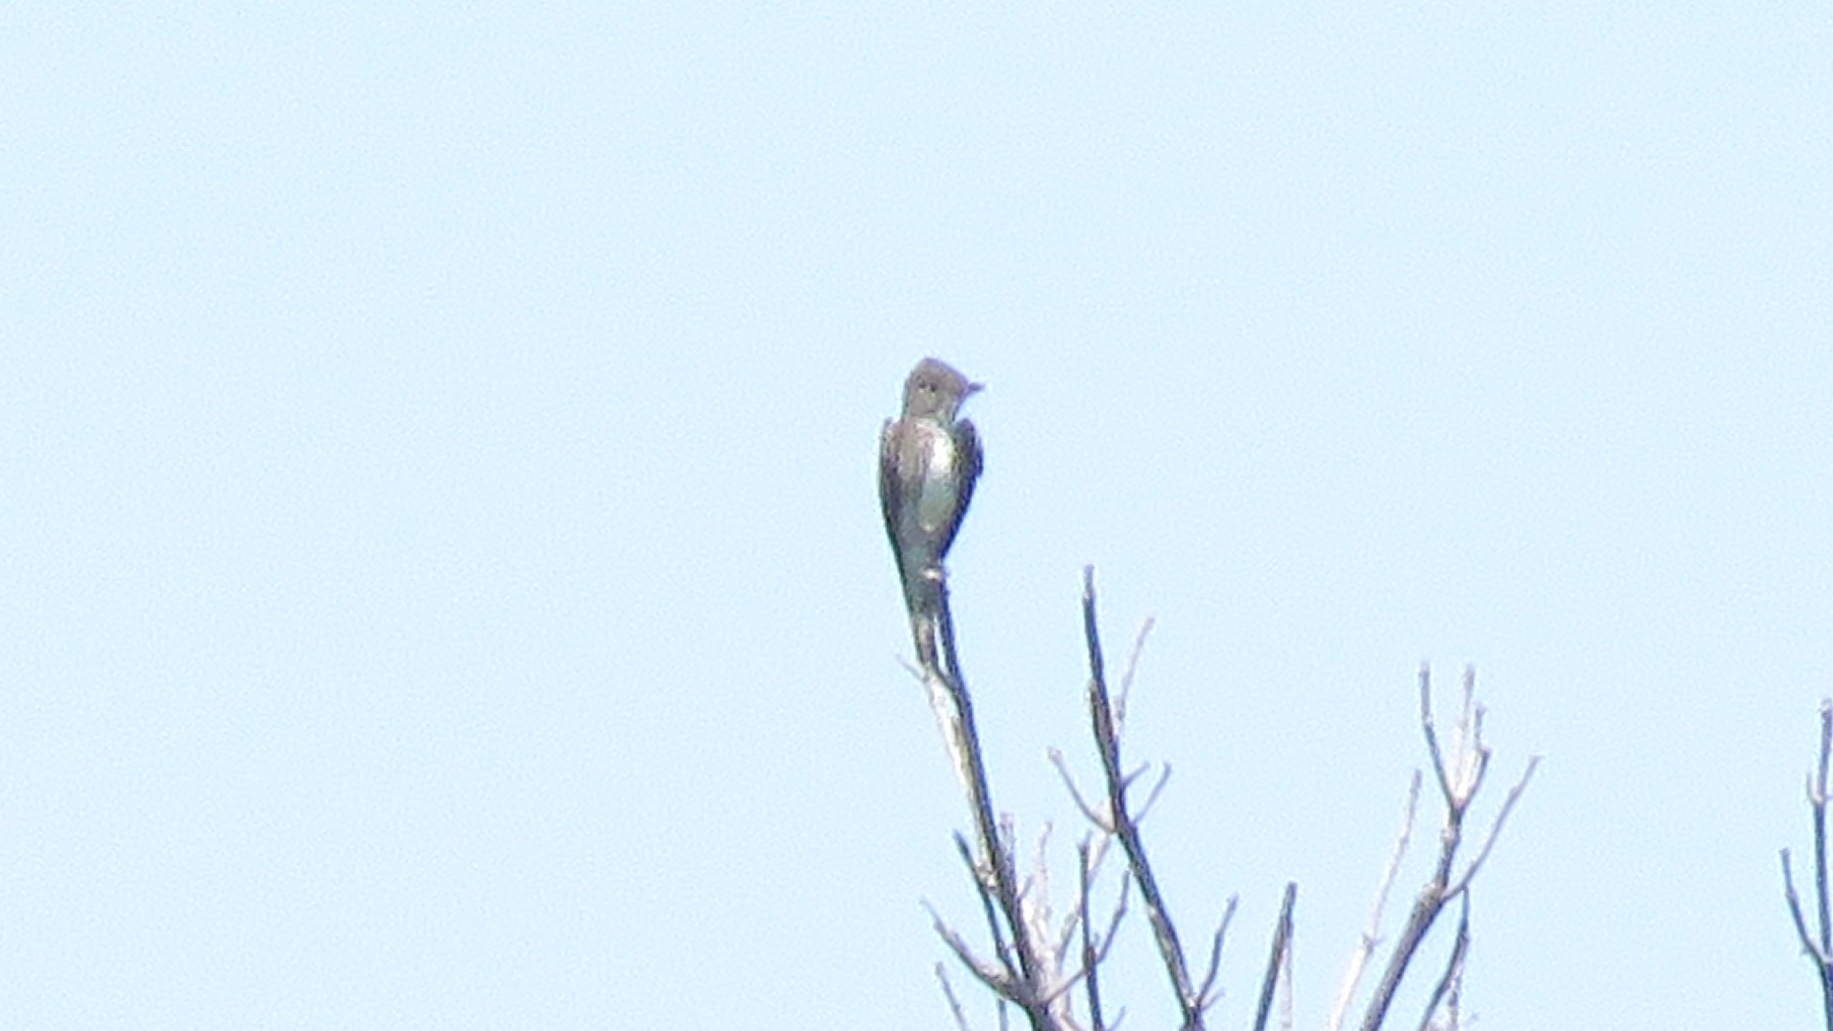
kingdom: Animalia
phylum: Chordata
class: Aves
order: Passeriformes
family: Tyrannidae
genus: Contopus
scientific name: Contopus cooperi
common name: Olive-sided flycatcher
